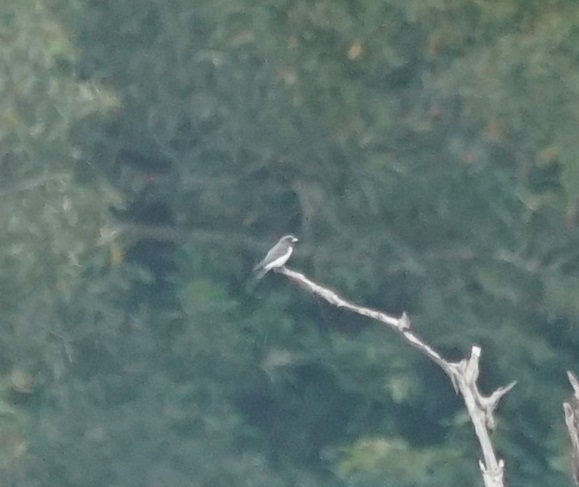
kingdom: Animalia
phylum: Chordata
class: Aves
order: Passeriformes
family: Artamidae
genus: Artamus
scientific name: Artamus leucoryn
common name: White-breasted woodswallow
